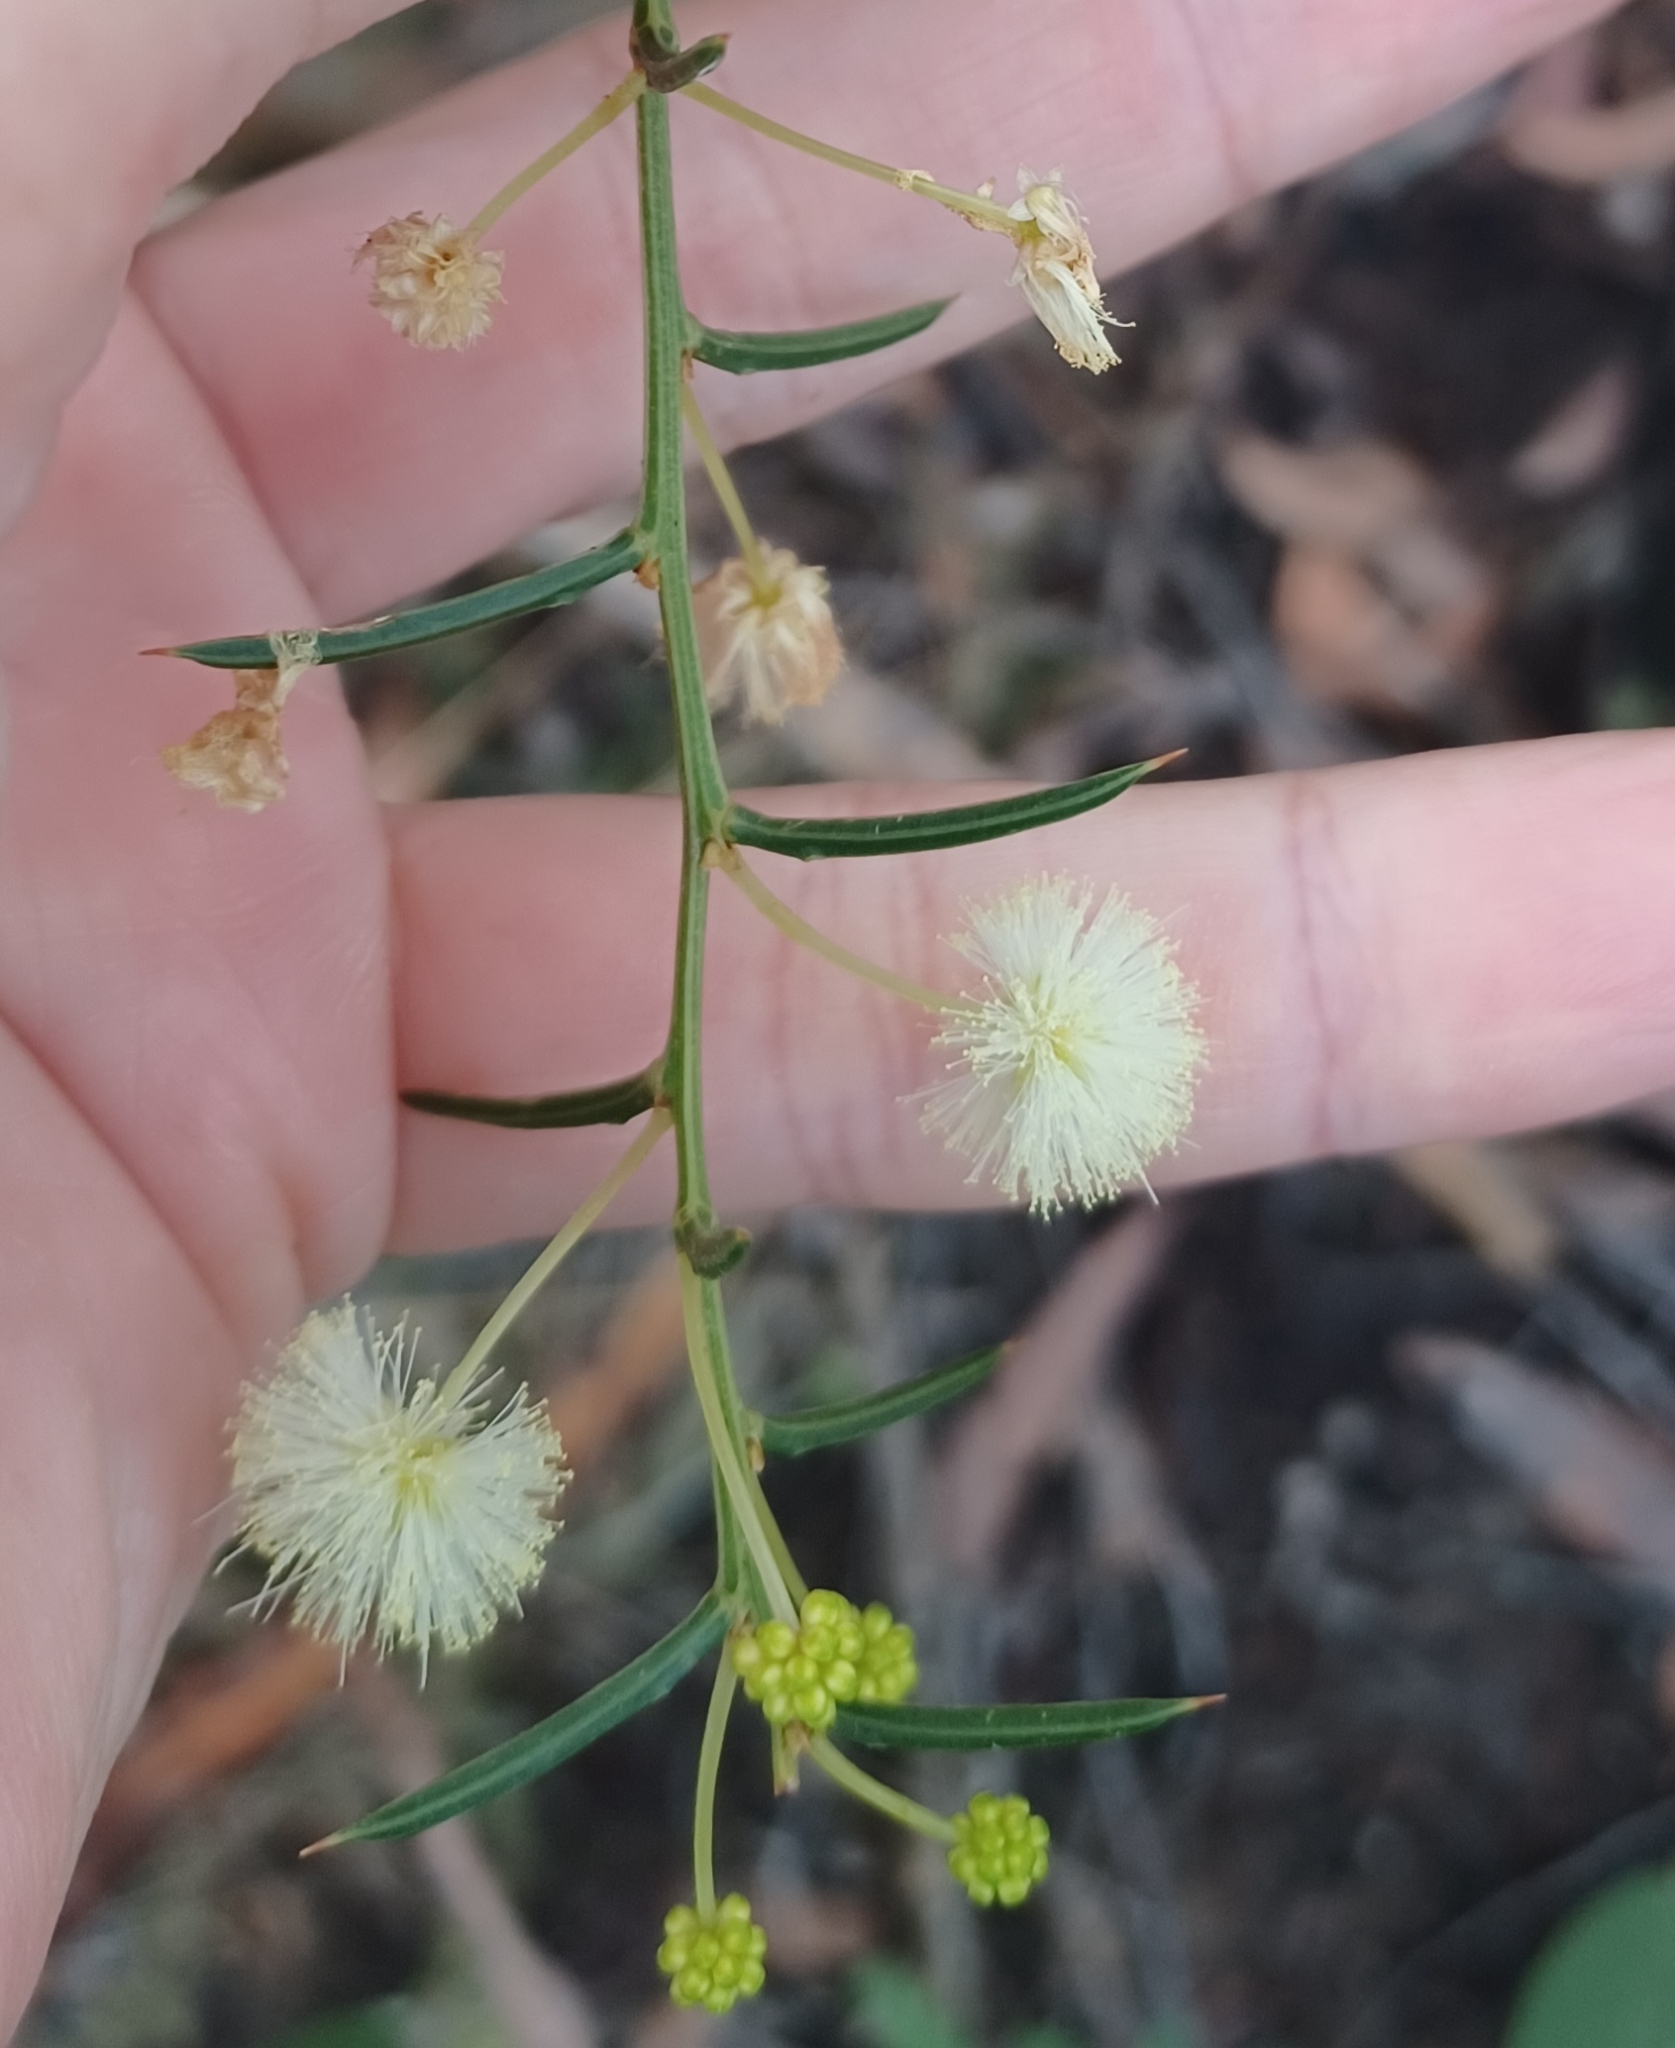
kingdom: Plantae
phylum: Tracheophyta
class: Magnoliopsida
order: Fabales
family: Fabaceae
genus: Acacia
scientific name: Acacia genistifolia
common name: Early wattle
